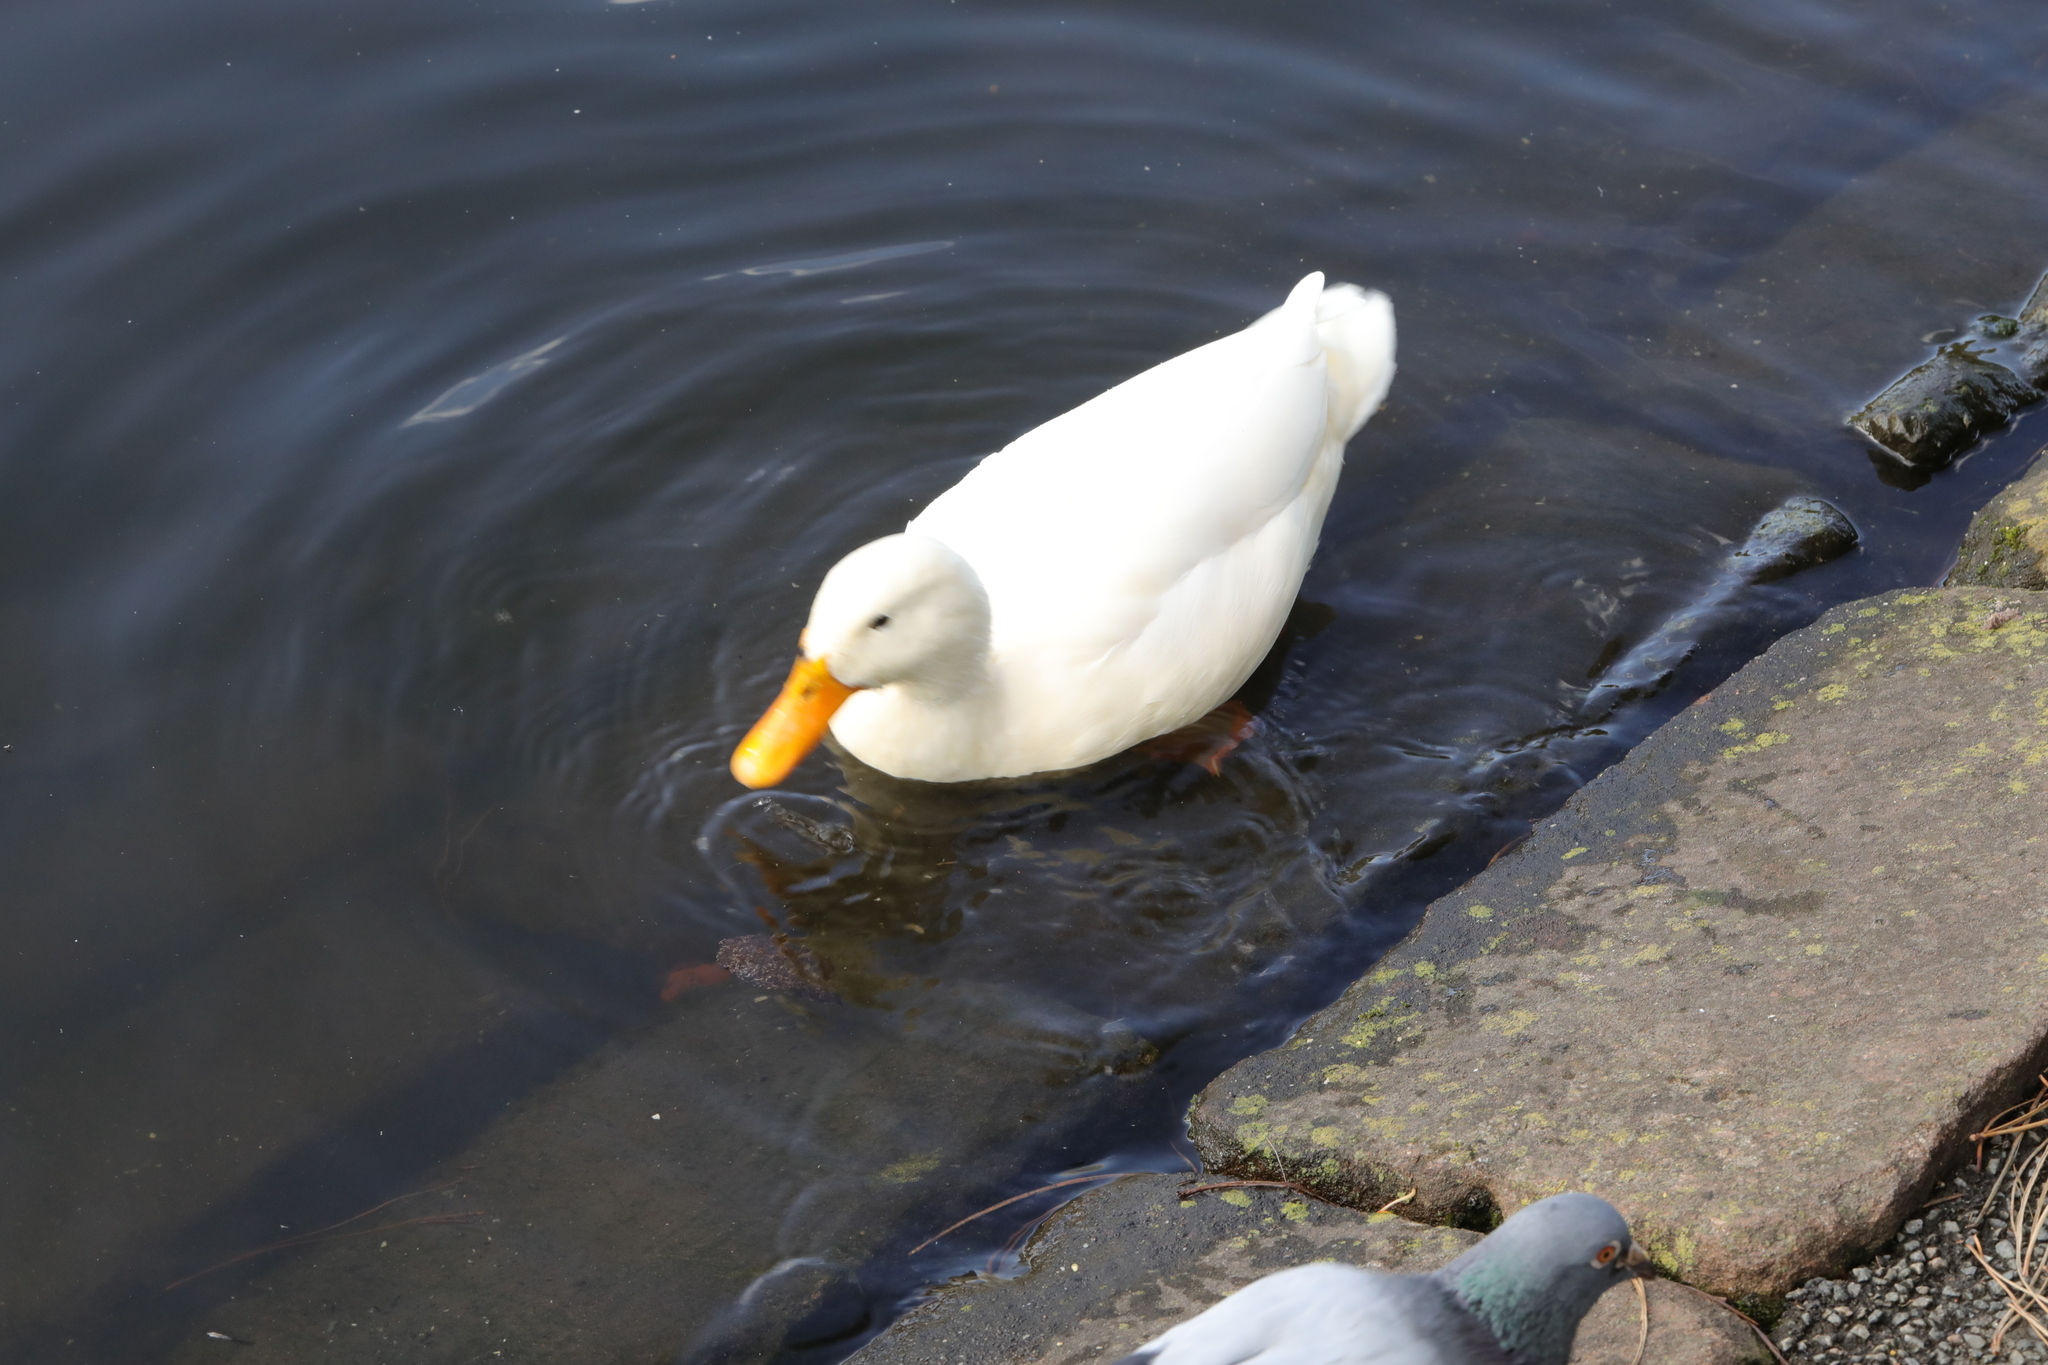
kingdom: Animalia
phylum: Chordata
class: Aves
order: Anseriformes
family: Anatidae
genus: Anas
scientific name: Anas platyrhynchos
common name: Mallard
